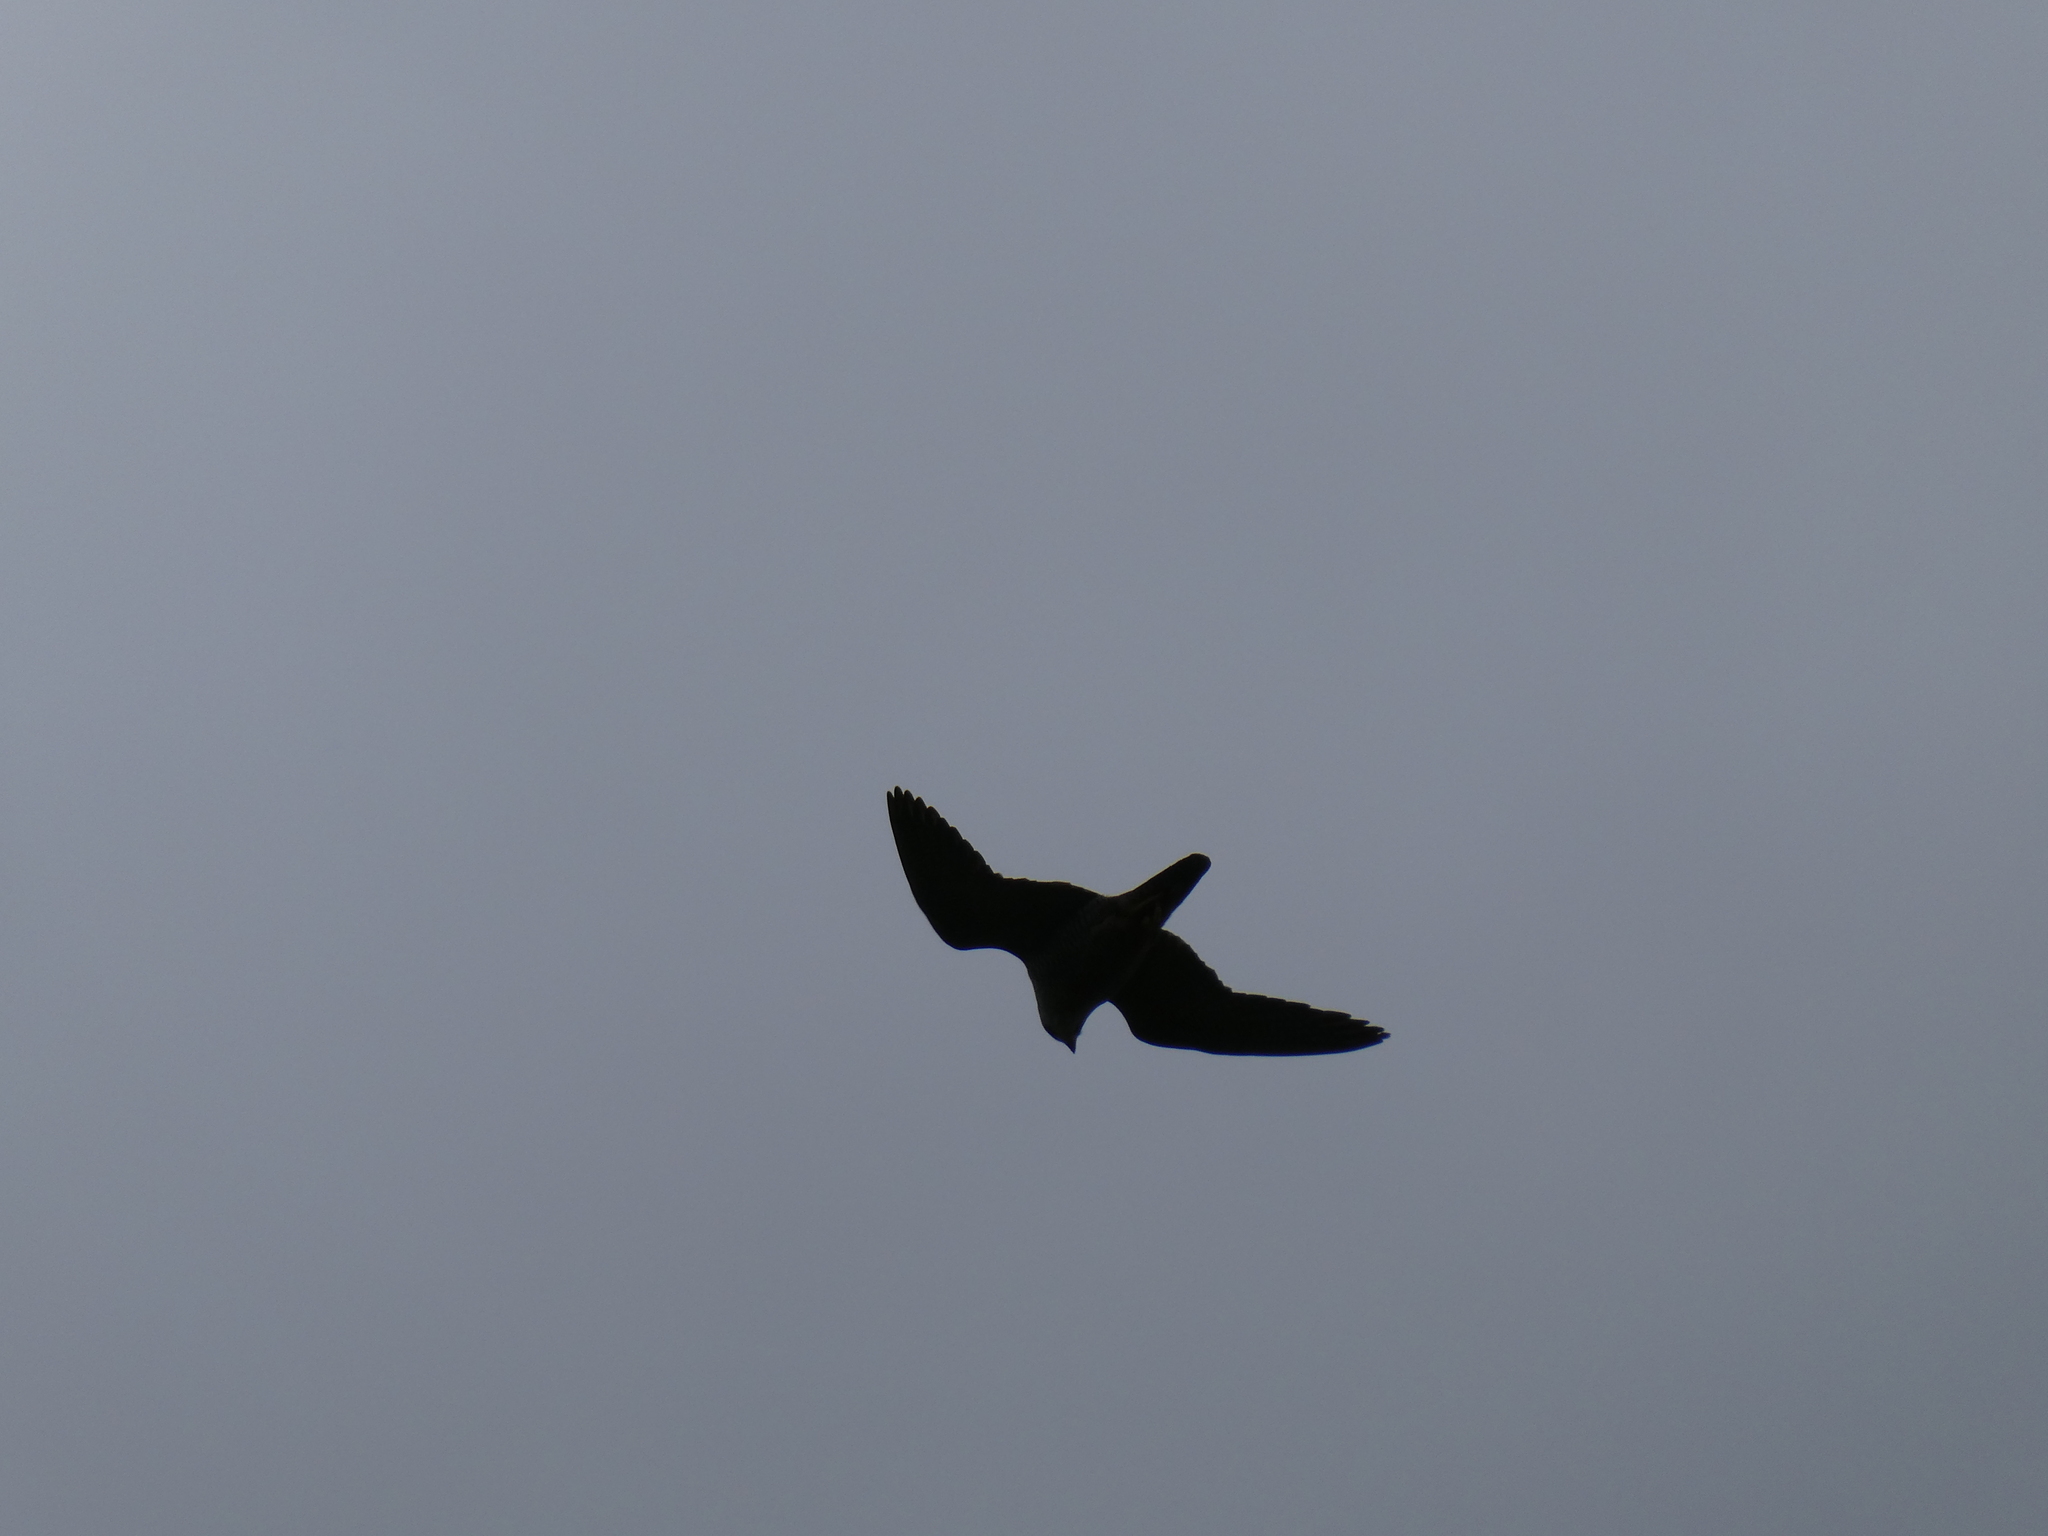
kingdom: Animalia
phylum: Chordata
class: Aves
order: Falconiformes
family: Falconidae
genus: Falco
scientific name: Falco peregrinus
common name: Peregrine falcon
